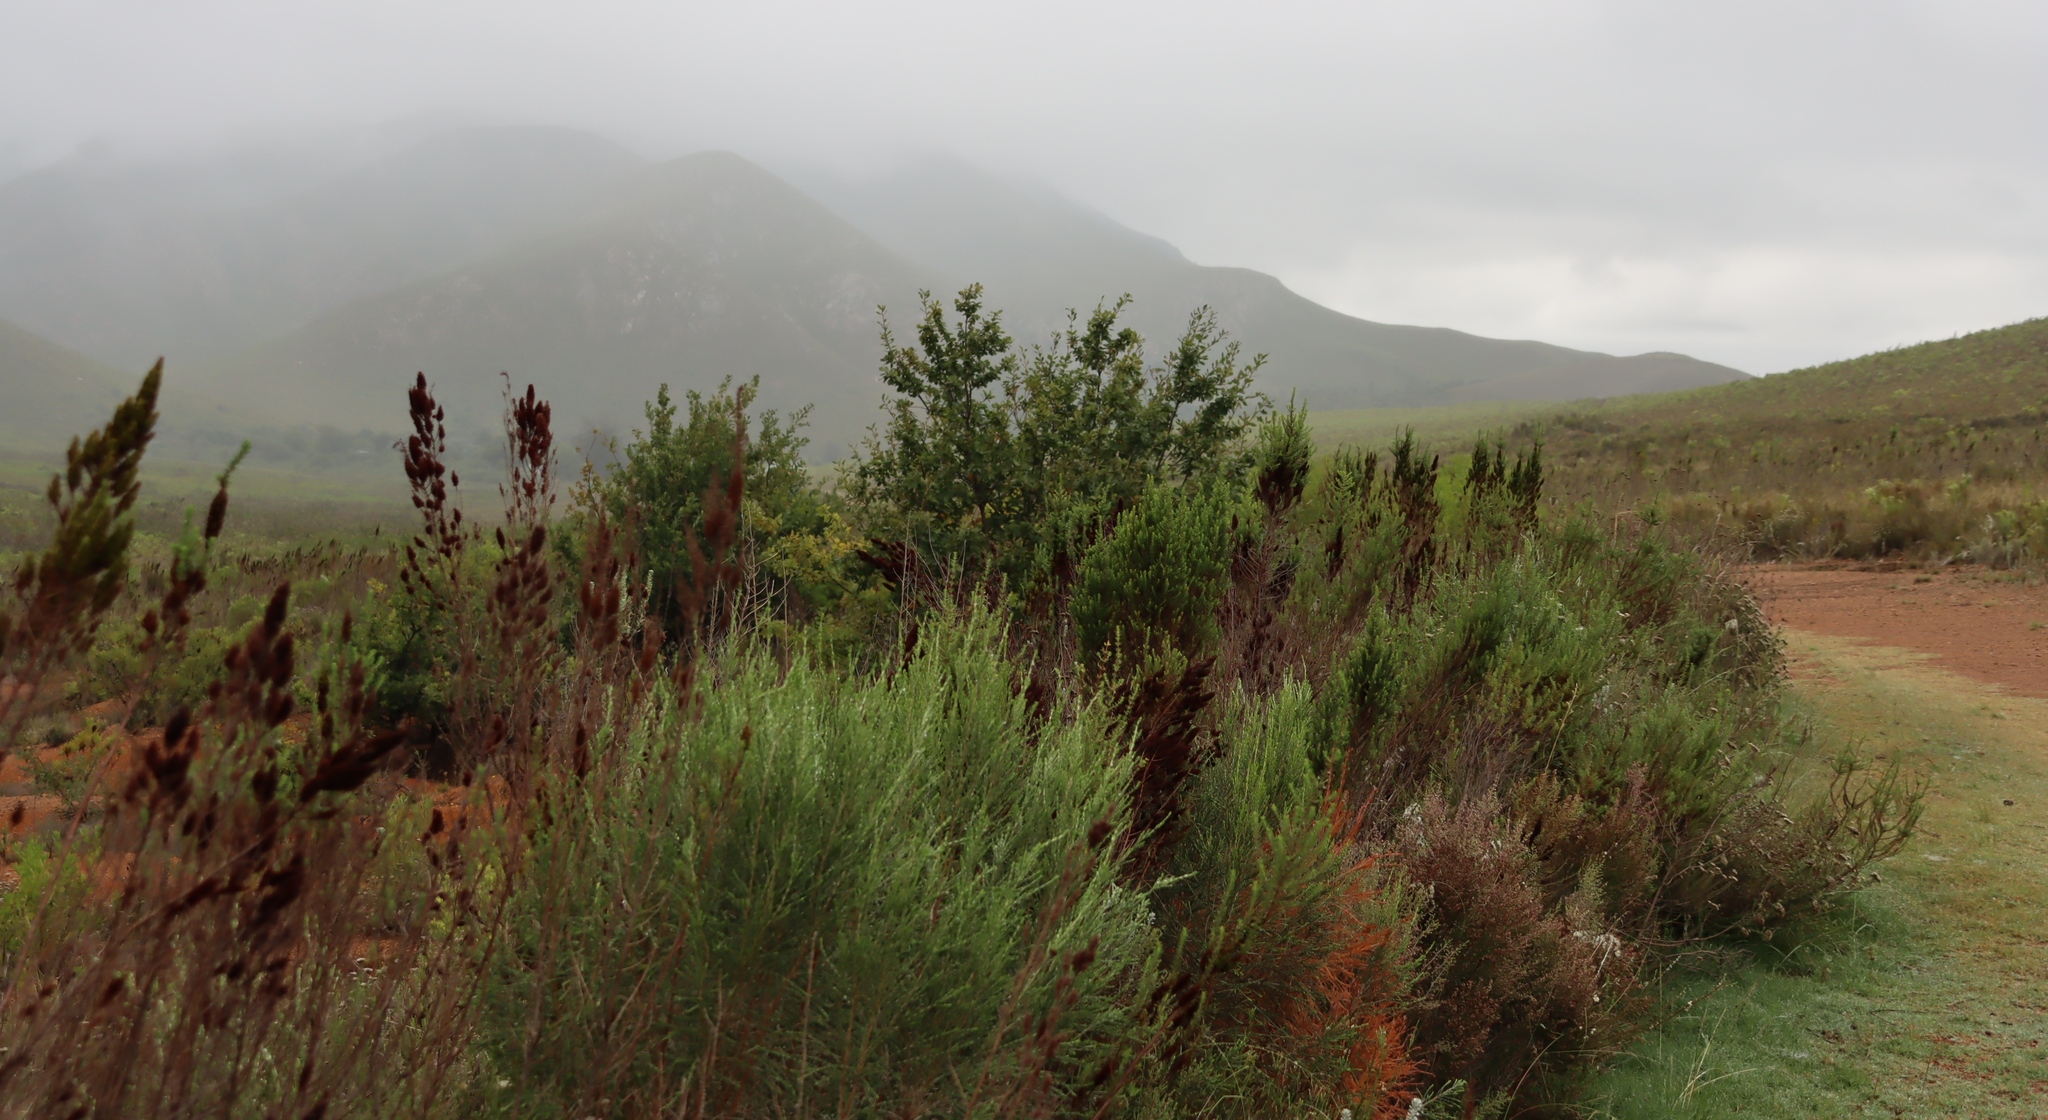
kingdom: Plantae
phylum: Tracheophyta
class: Magnoliopsida
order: Fagales
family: Fagaceae
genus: Quercus
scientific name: Quercus robur
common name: Pedunculate oak
